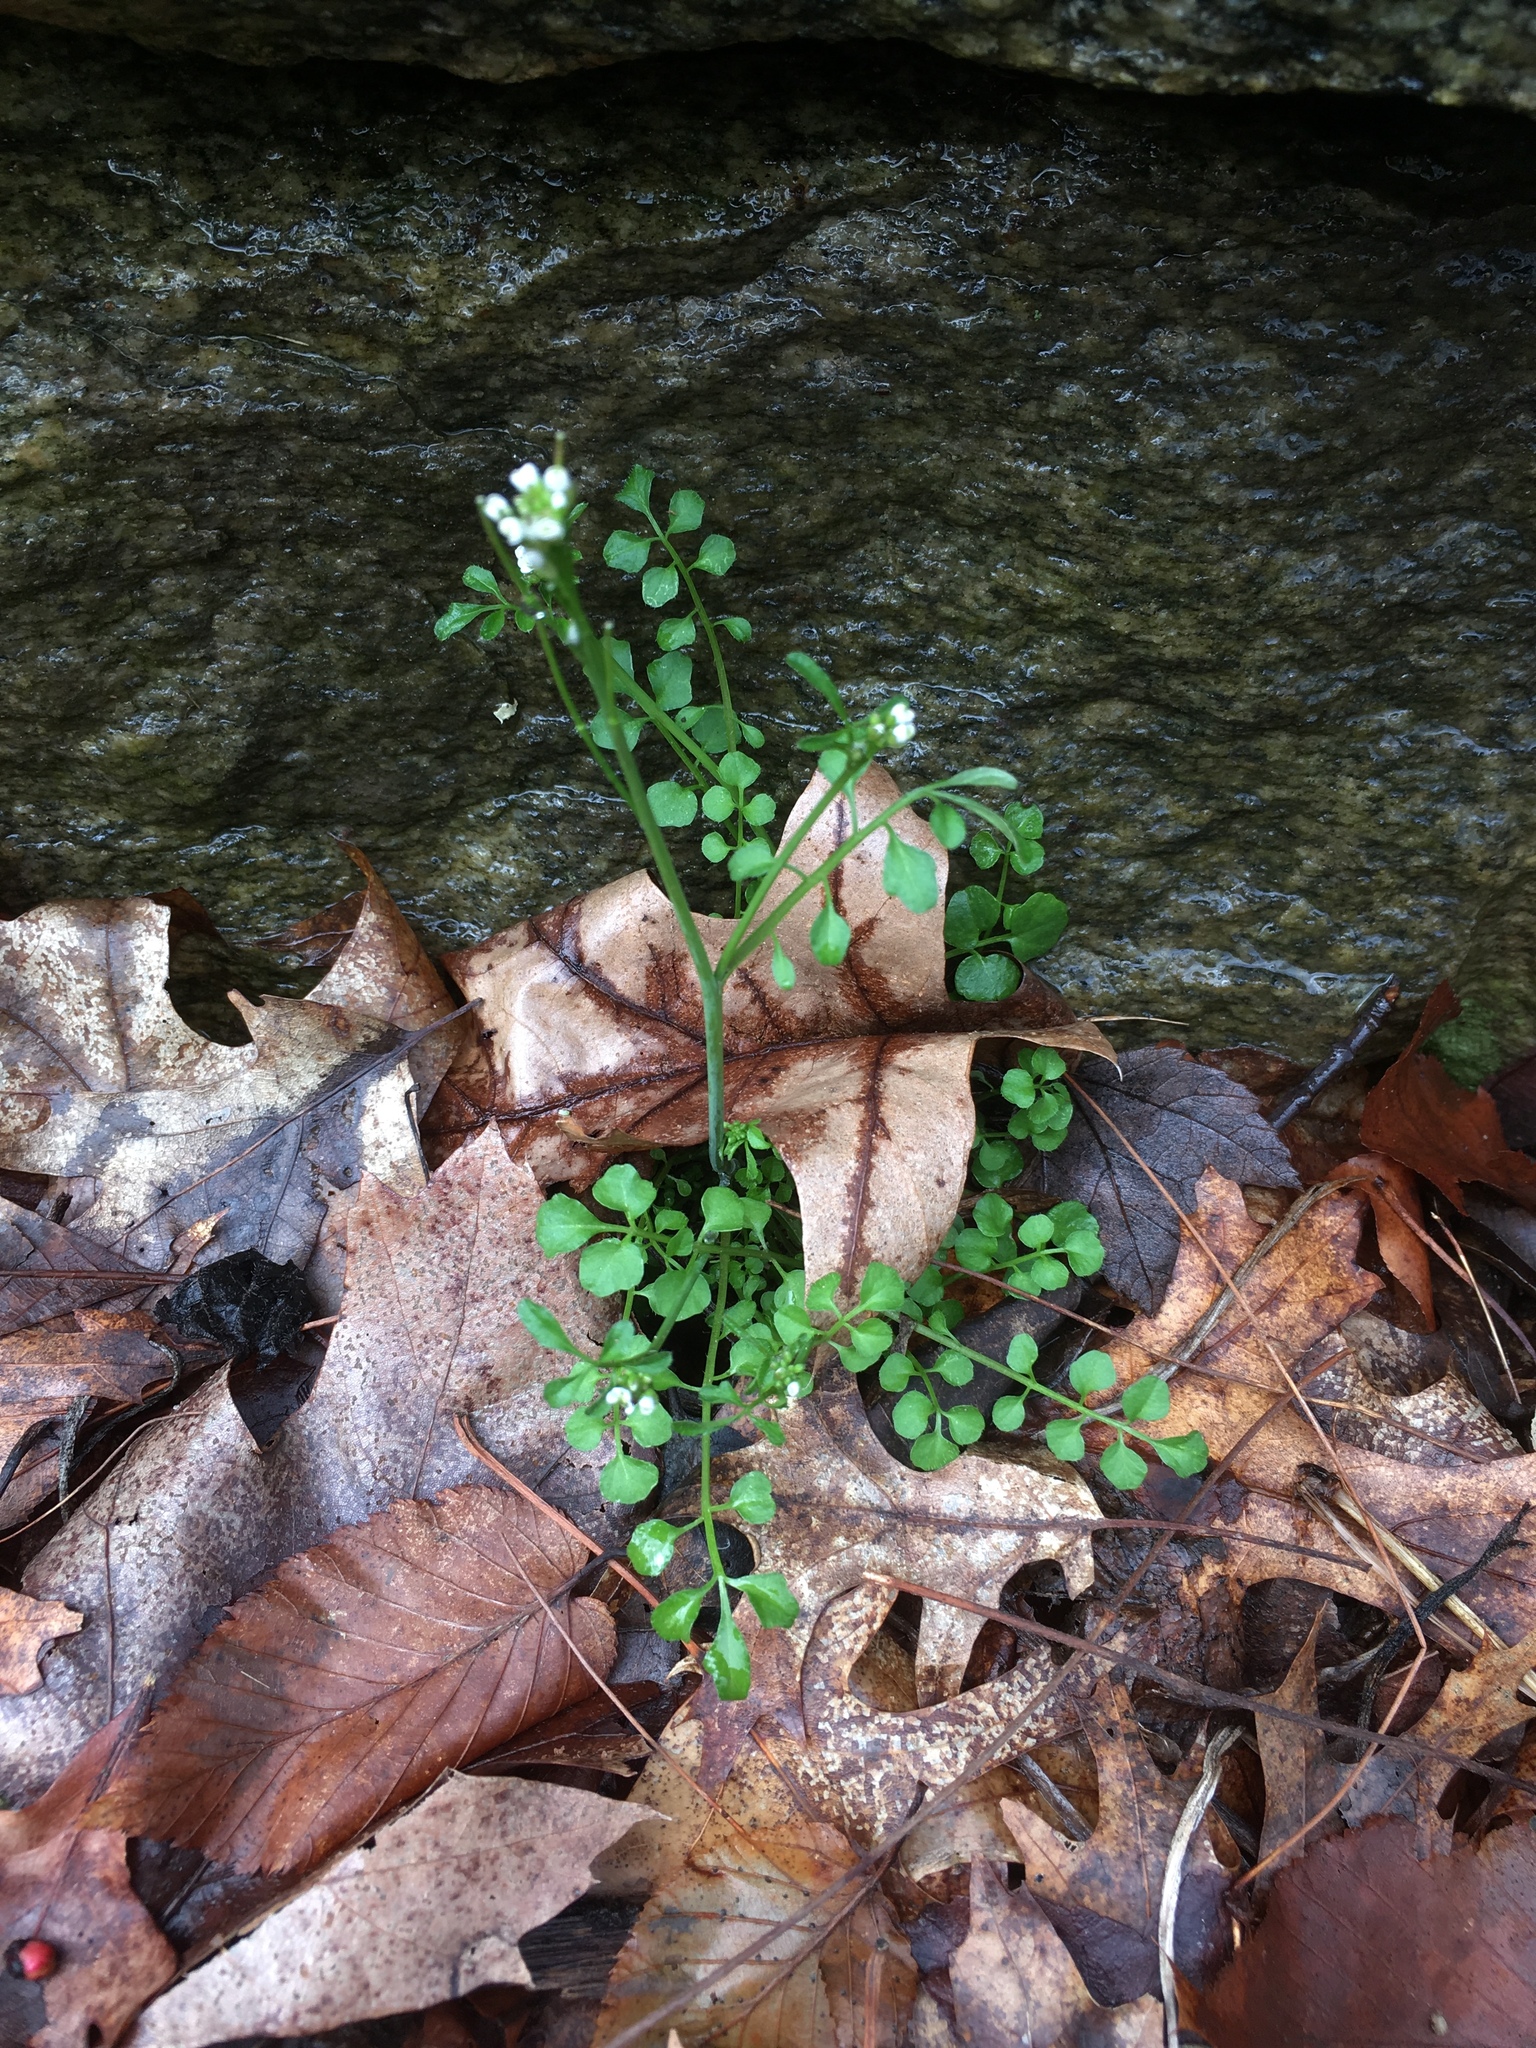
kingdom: Plantae
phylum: Tracheophyta
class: Magnoliopsida
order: Brassicales
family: Brassicaceae
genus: Cardamine
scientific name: Cardamine hirsuta
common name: Hairy bittercress
